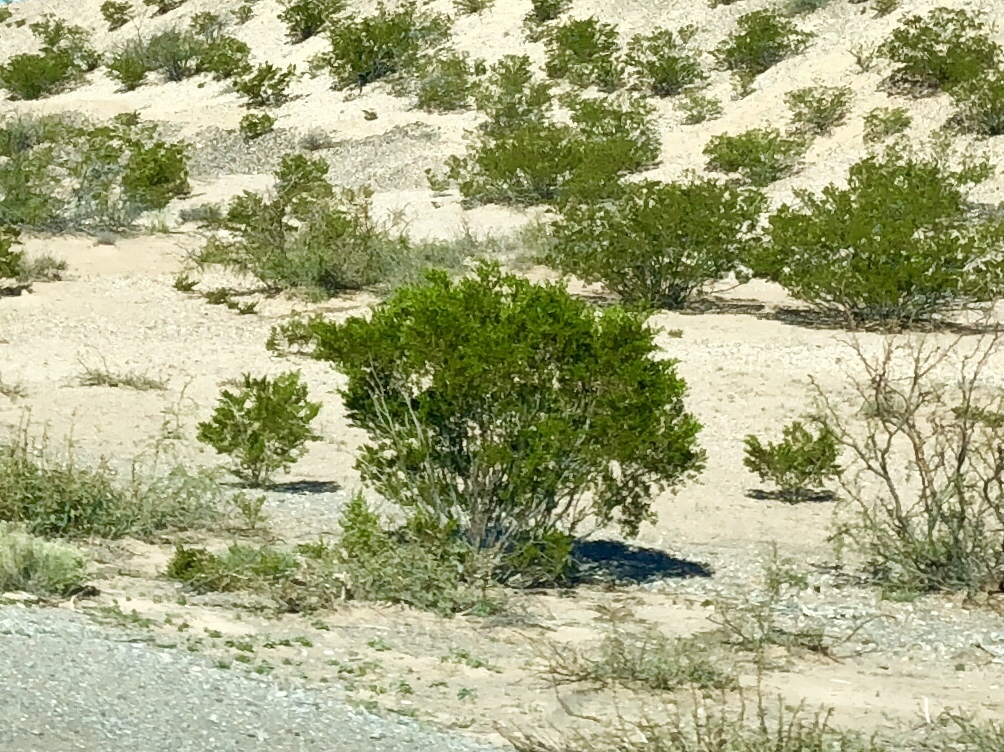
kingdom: Plantae
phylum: Tracheophyta
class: Magnoliopsida
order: Zygophyllales
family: Zygophyllaceae
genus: Larrea
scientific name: Larrea tridentata
